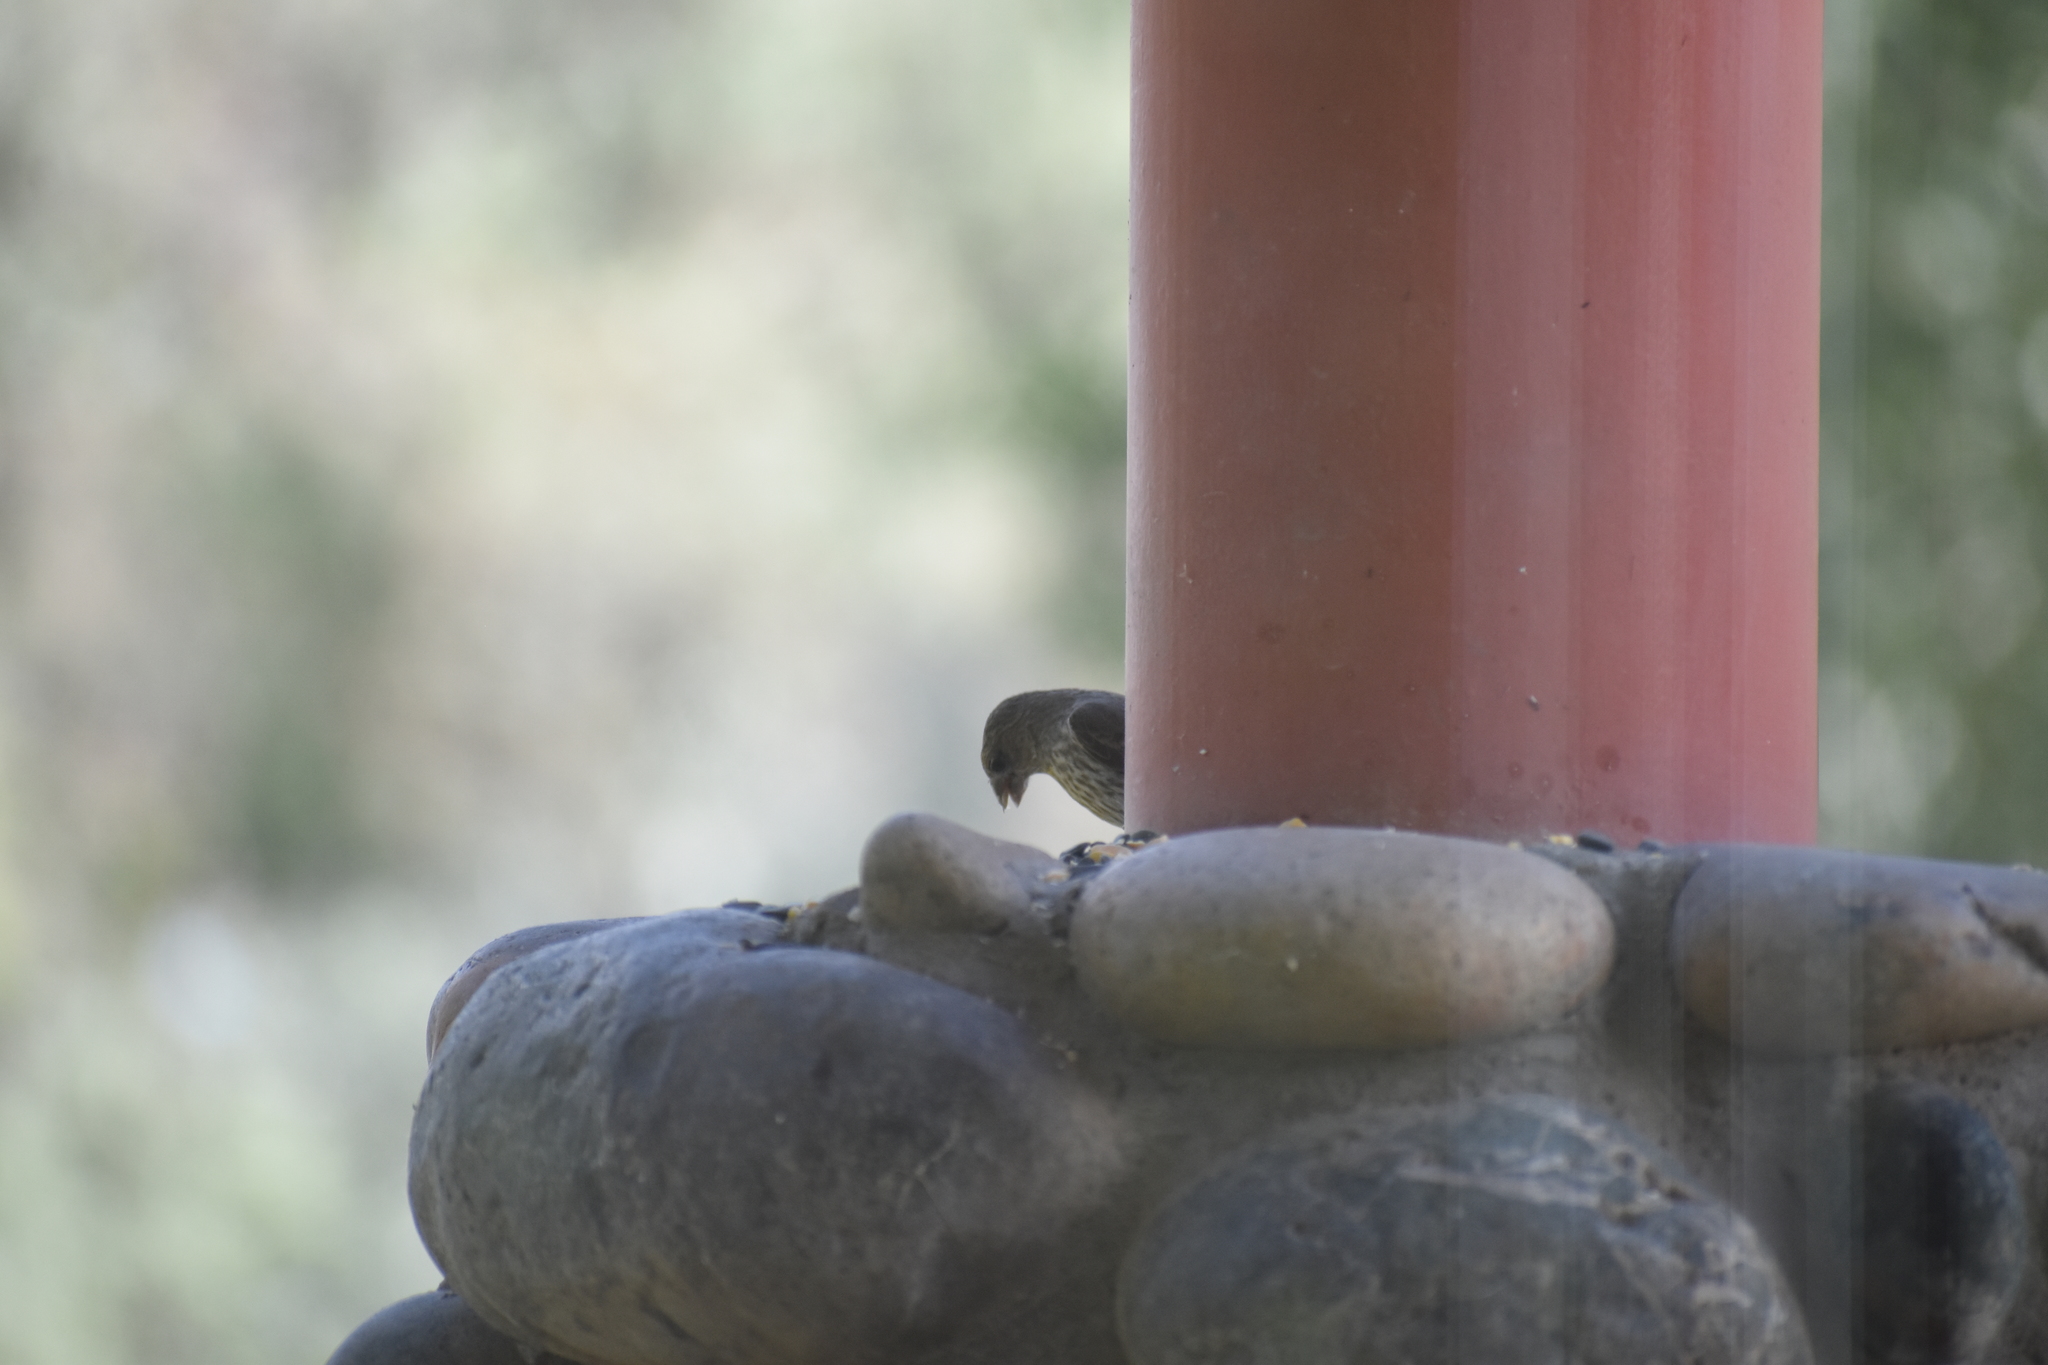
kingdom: Animalia
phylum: Chordata
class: Aves
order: Passeriformes
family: Fringillidae
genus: Haemorhous
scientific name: Haemorhous mexicanus
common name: House finch
